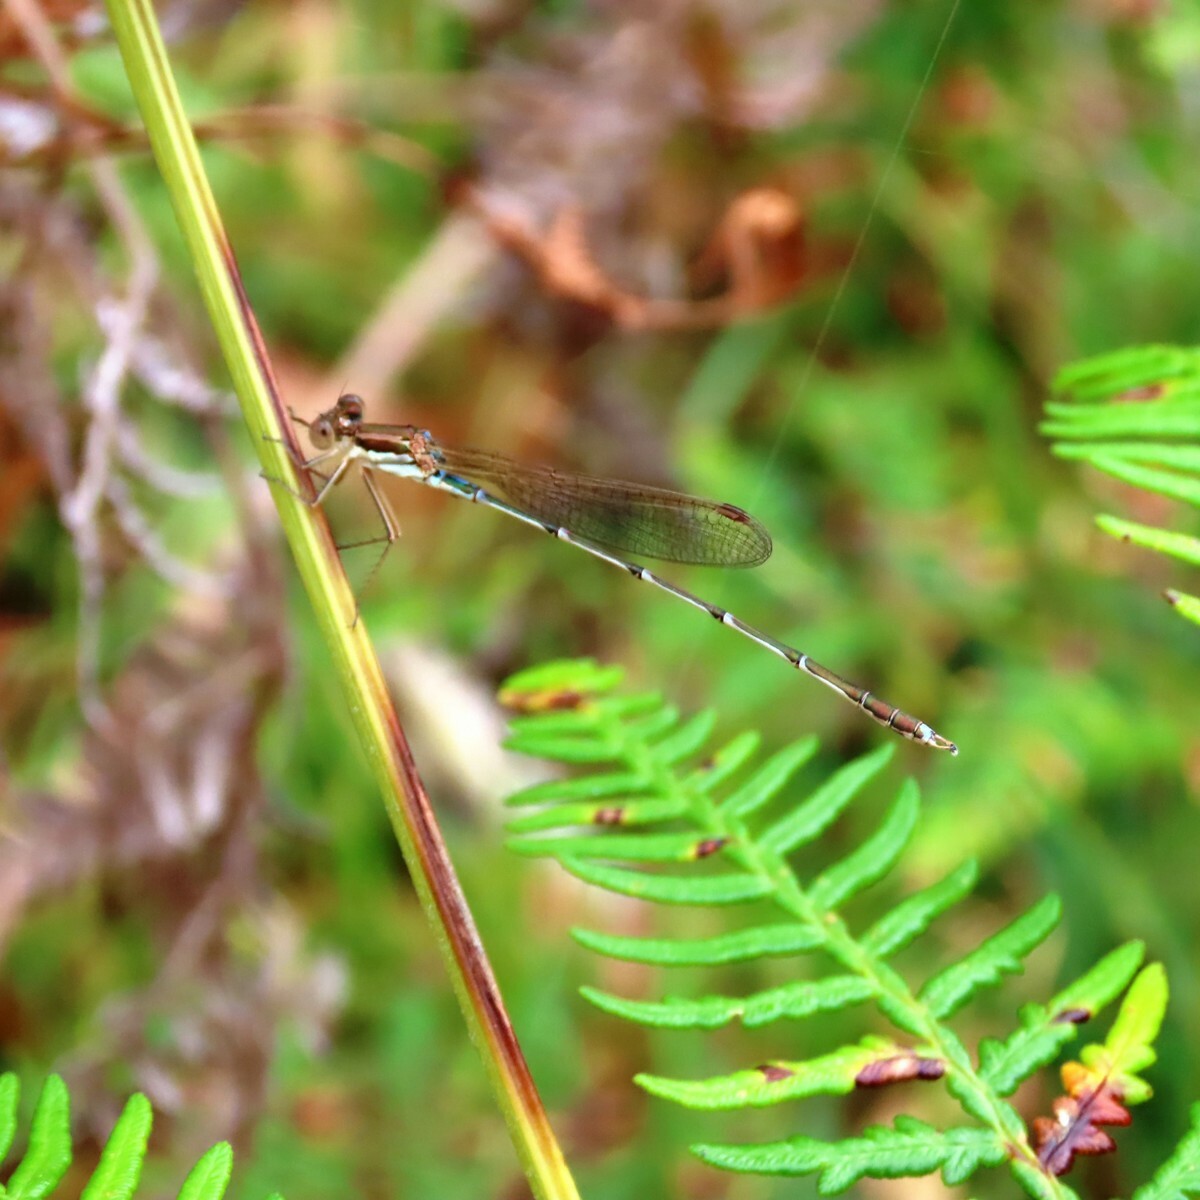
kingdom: Animalia
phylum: Arthropoda
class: Insecta
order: Odonata
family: Lestidae
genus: Austrolestes
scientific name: Austrolestes analis
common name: Slender ringtail
